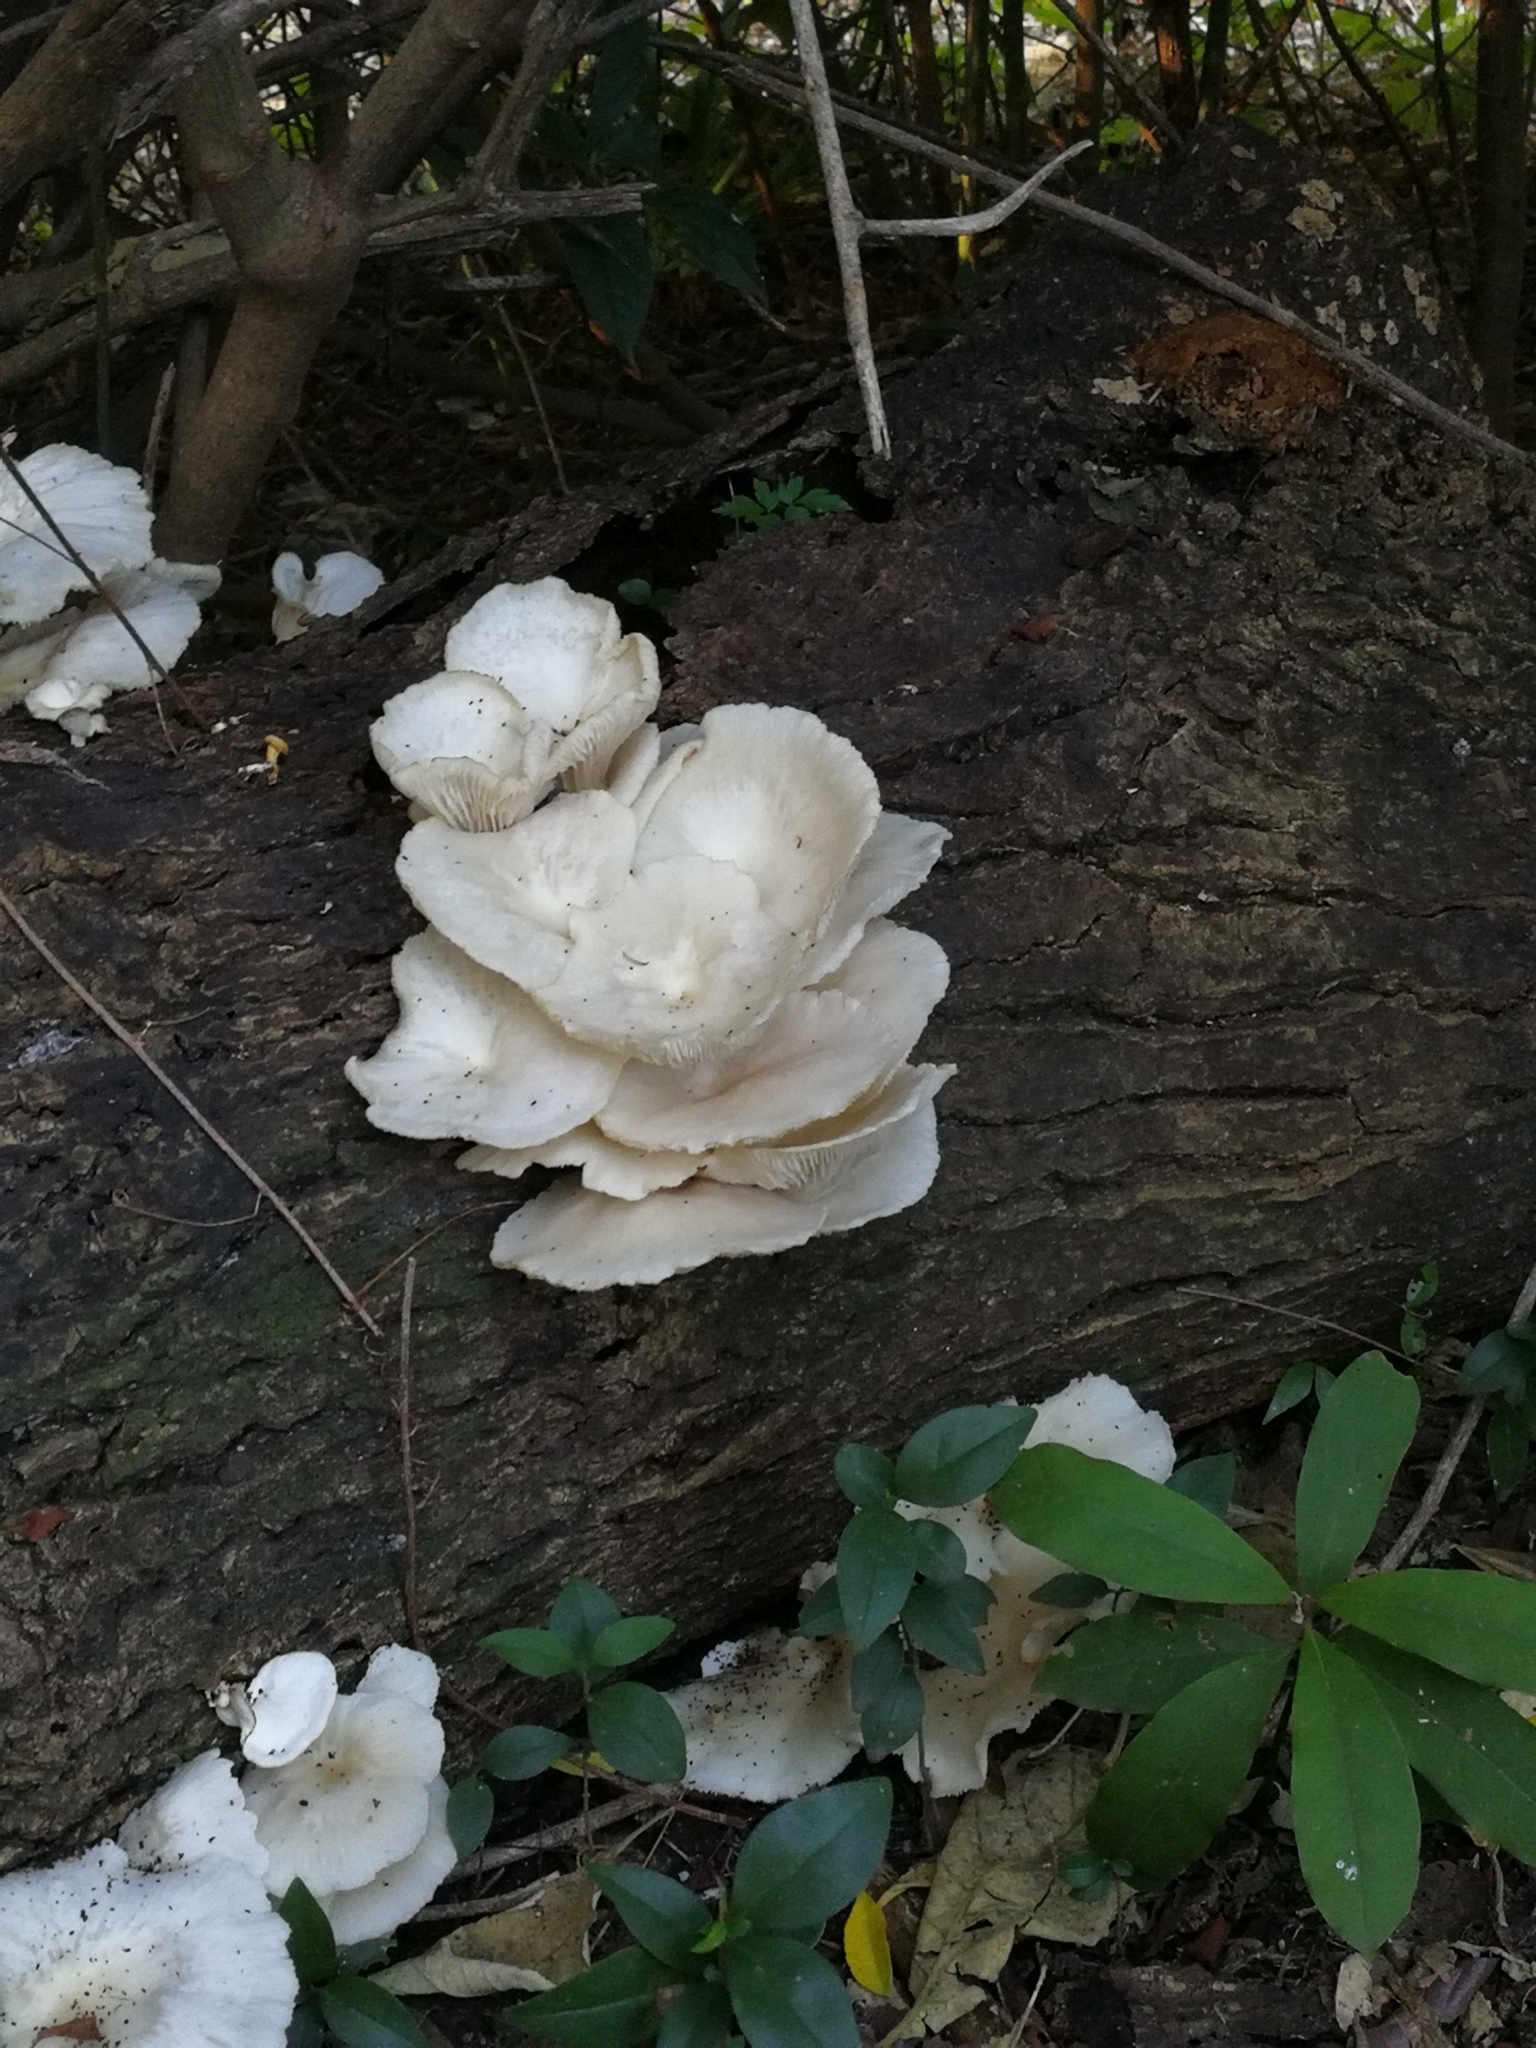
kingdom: Fungi
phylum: Basidiomycota
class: Agaricomycetes
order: Agaricales
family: Pleurotaceae
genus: Pleurotus
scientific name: Pleurotus pulmonarius
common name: Pale oyster
